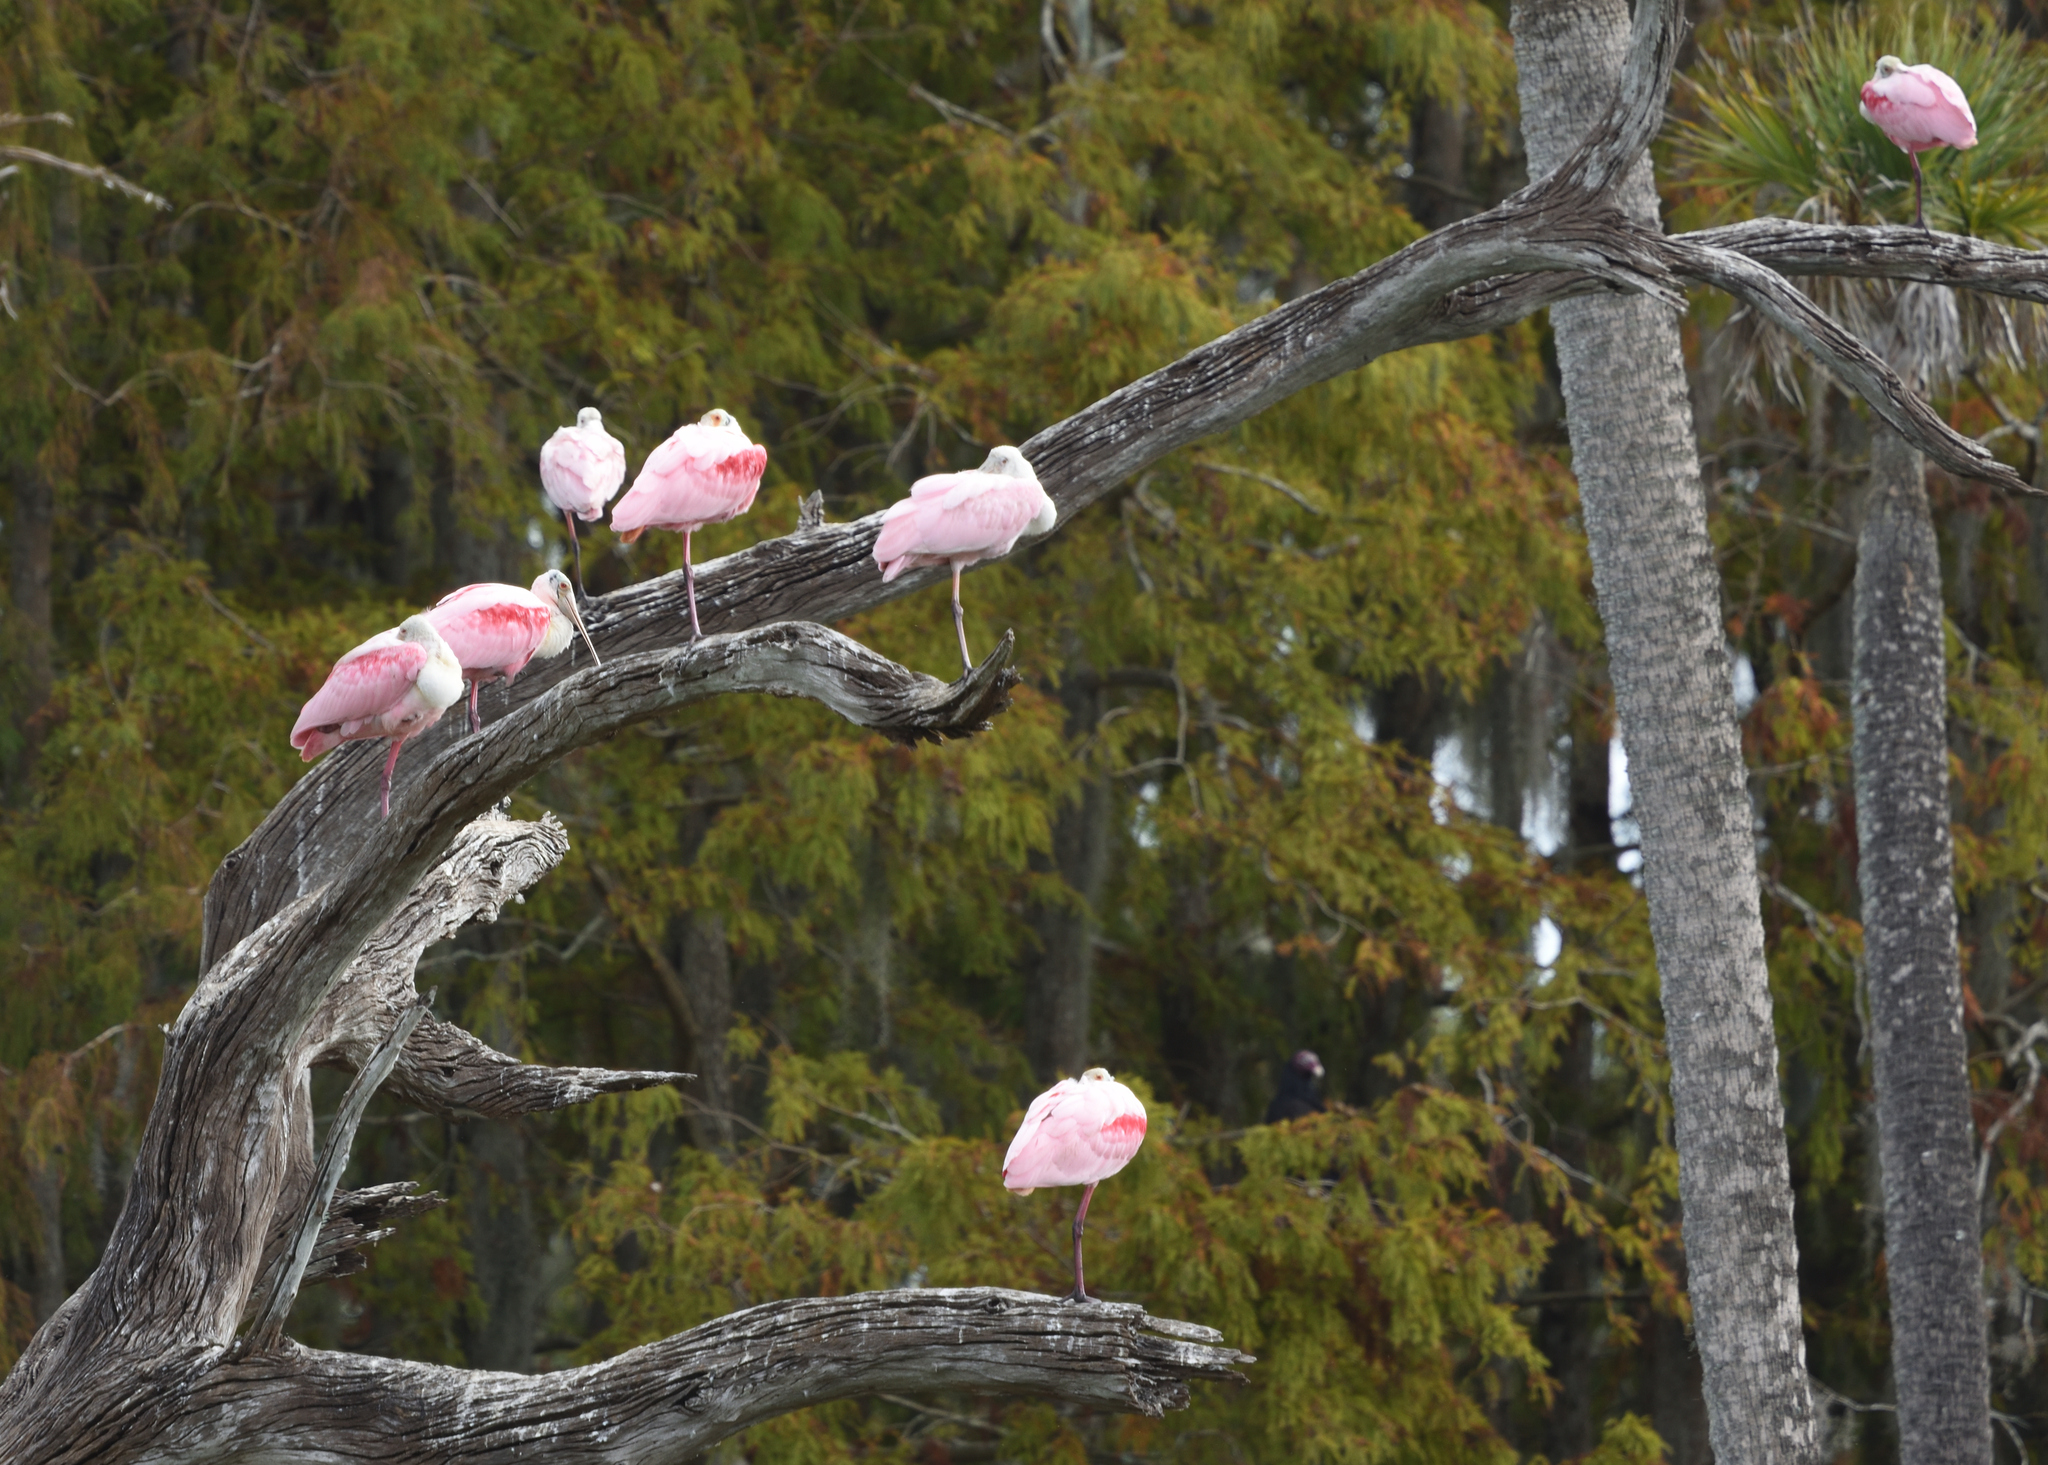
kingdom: Animalia
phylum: Chordata
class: Aves
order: Pelecaniformes
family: Threskiornithidae
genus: Platalea
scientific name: Platalea ajaja
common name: Roseate spoonbill
